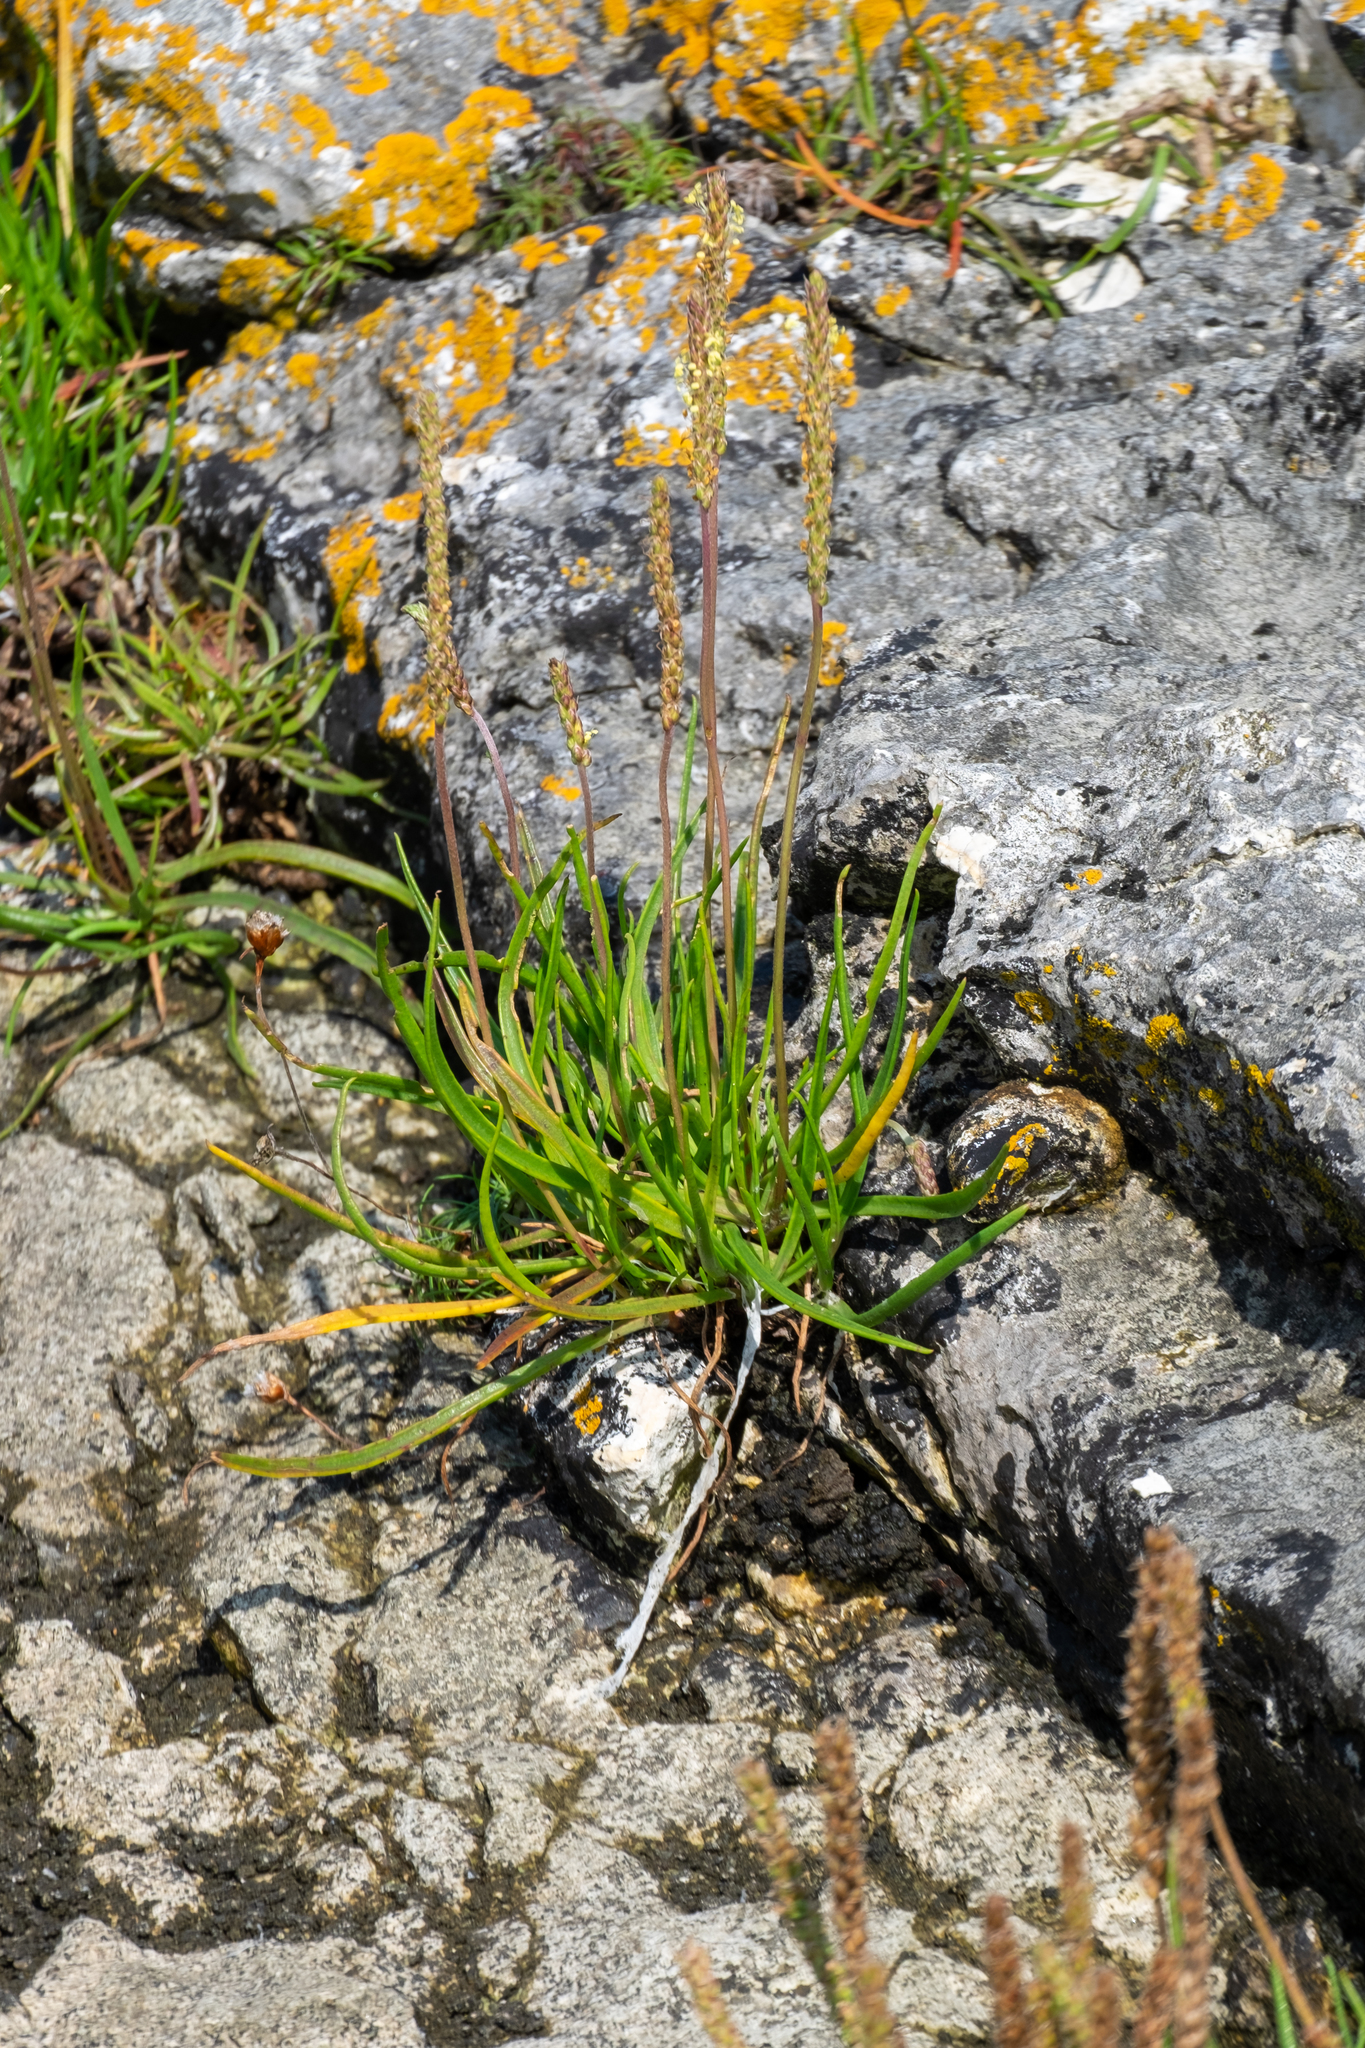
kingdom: Plantae
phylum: Tracheophyta
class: Magnoliopsida
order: Lamiales
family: Plantaginaceae
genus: Plantago
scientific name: Plantago maritima
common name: Sea plantain
